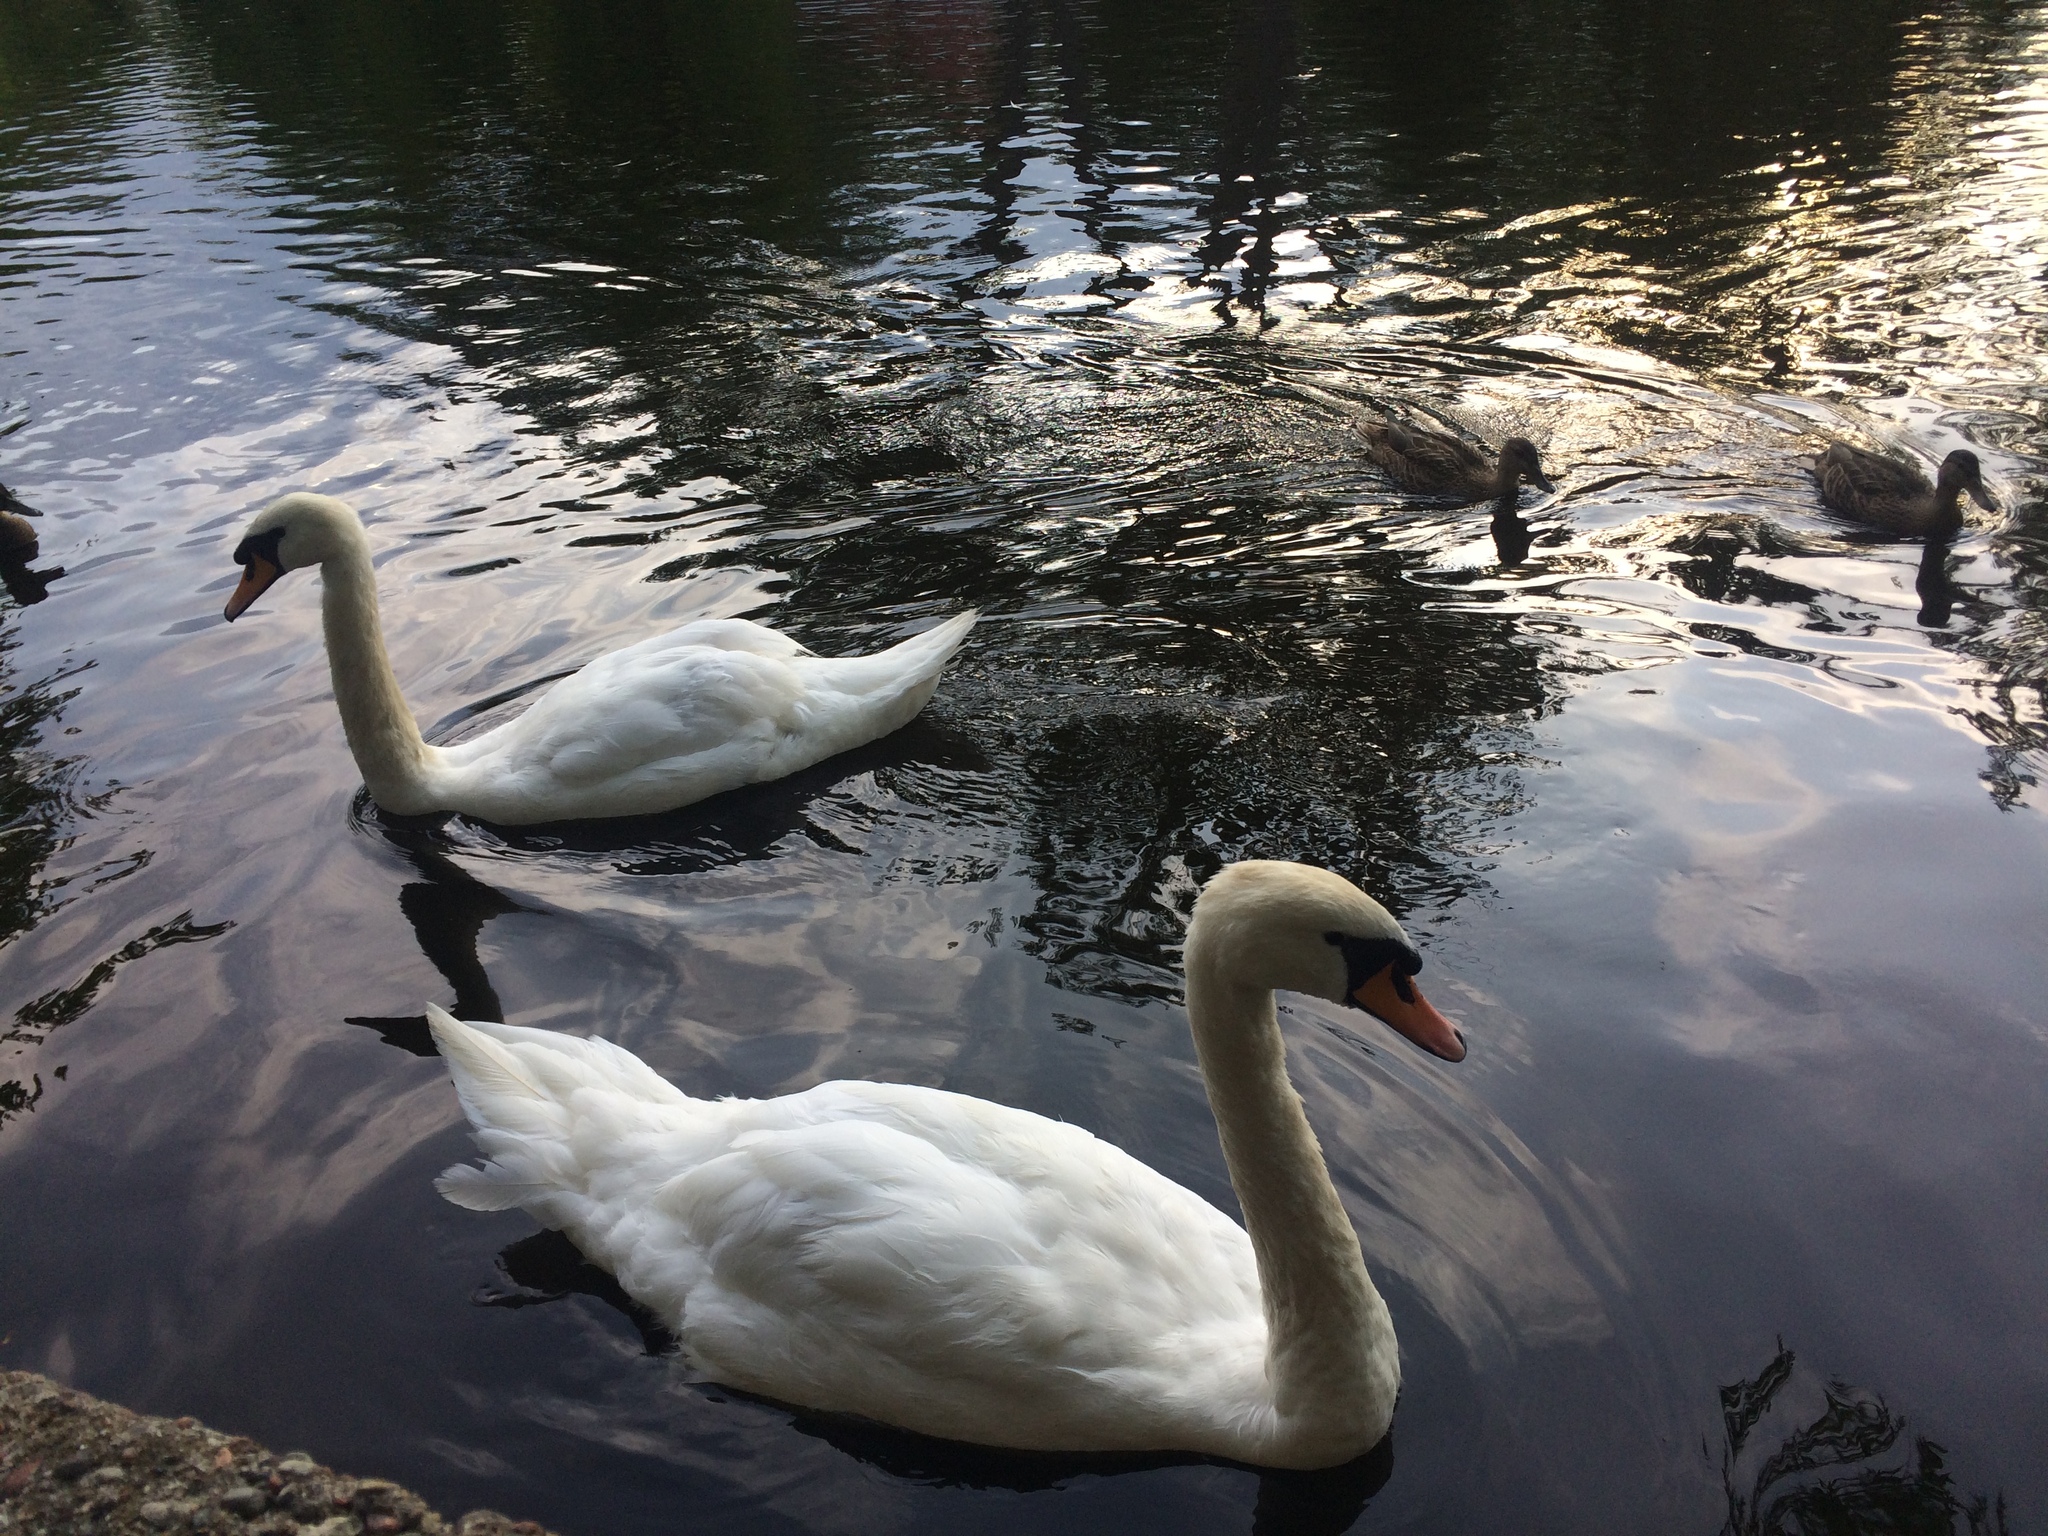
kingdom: Animalia
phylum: Chordata
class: Aves
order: Anseriformes
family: Anatidae
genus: Cygnus
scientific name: Cygnus olor
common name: Mute swan
